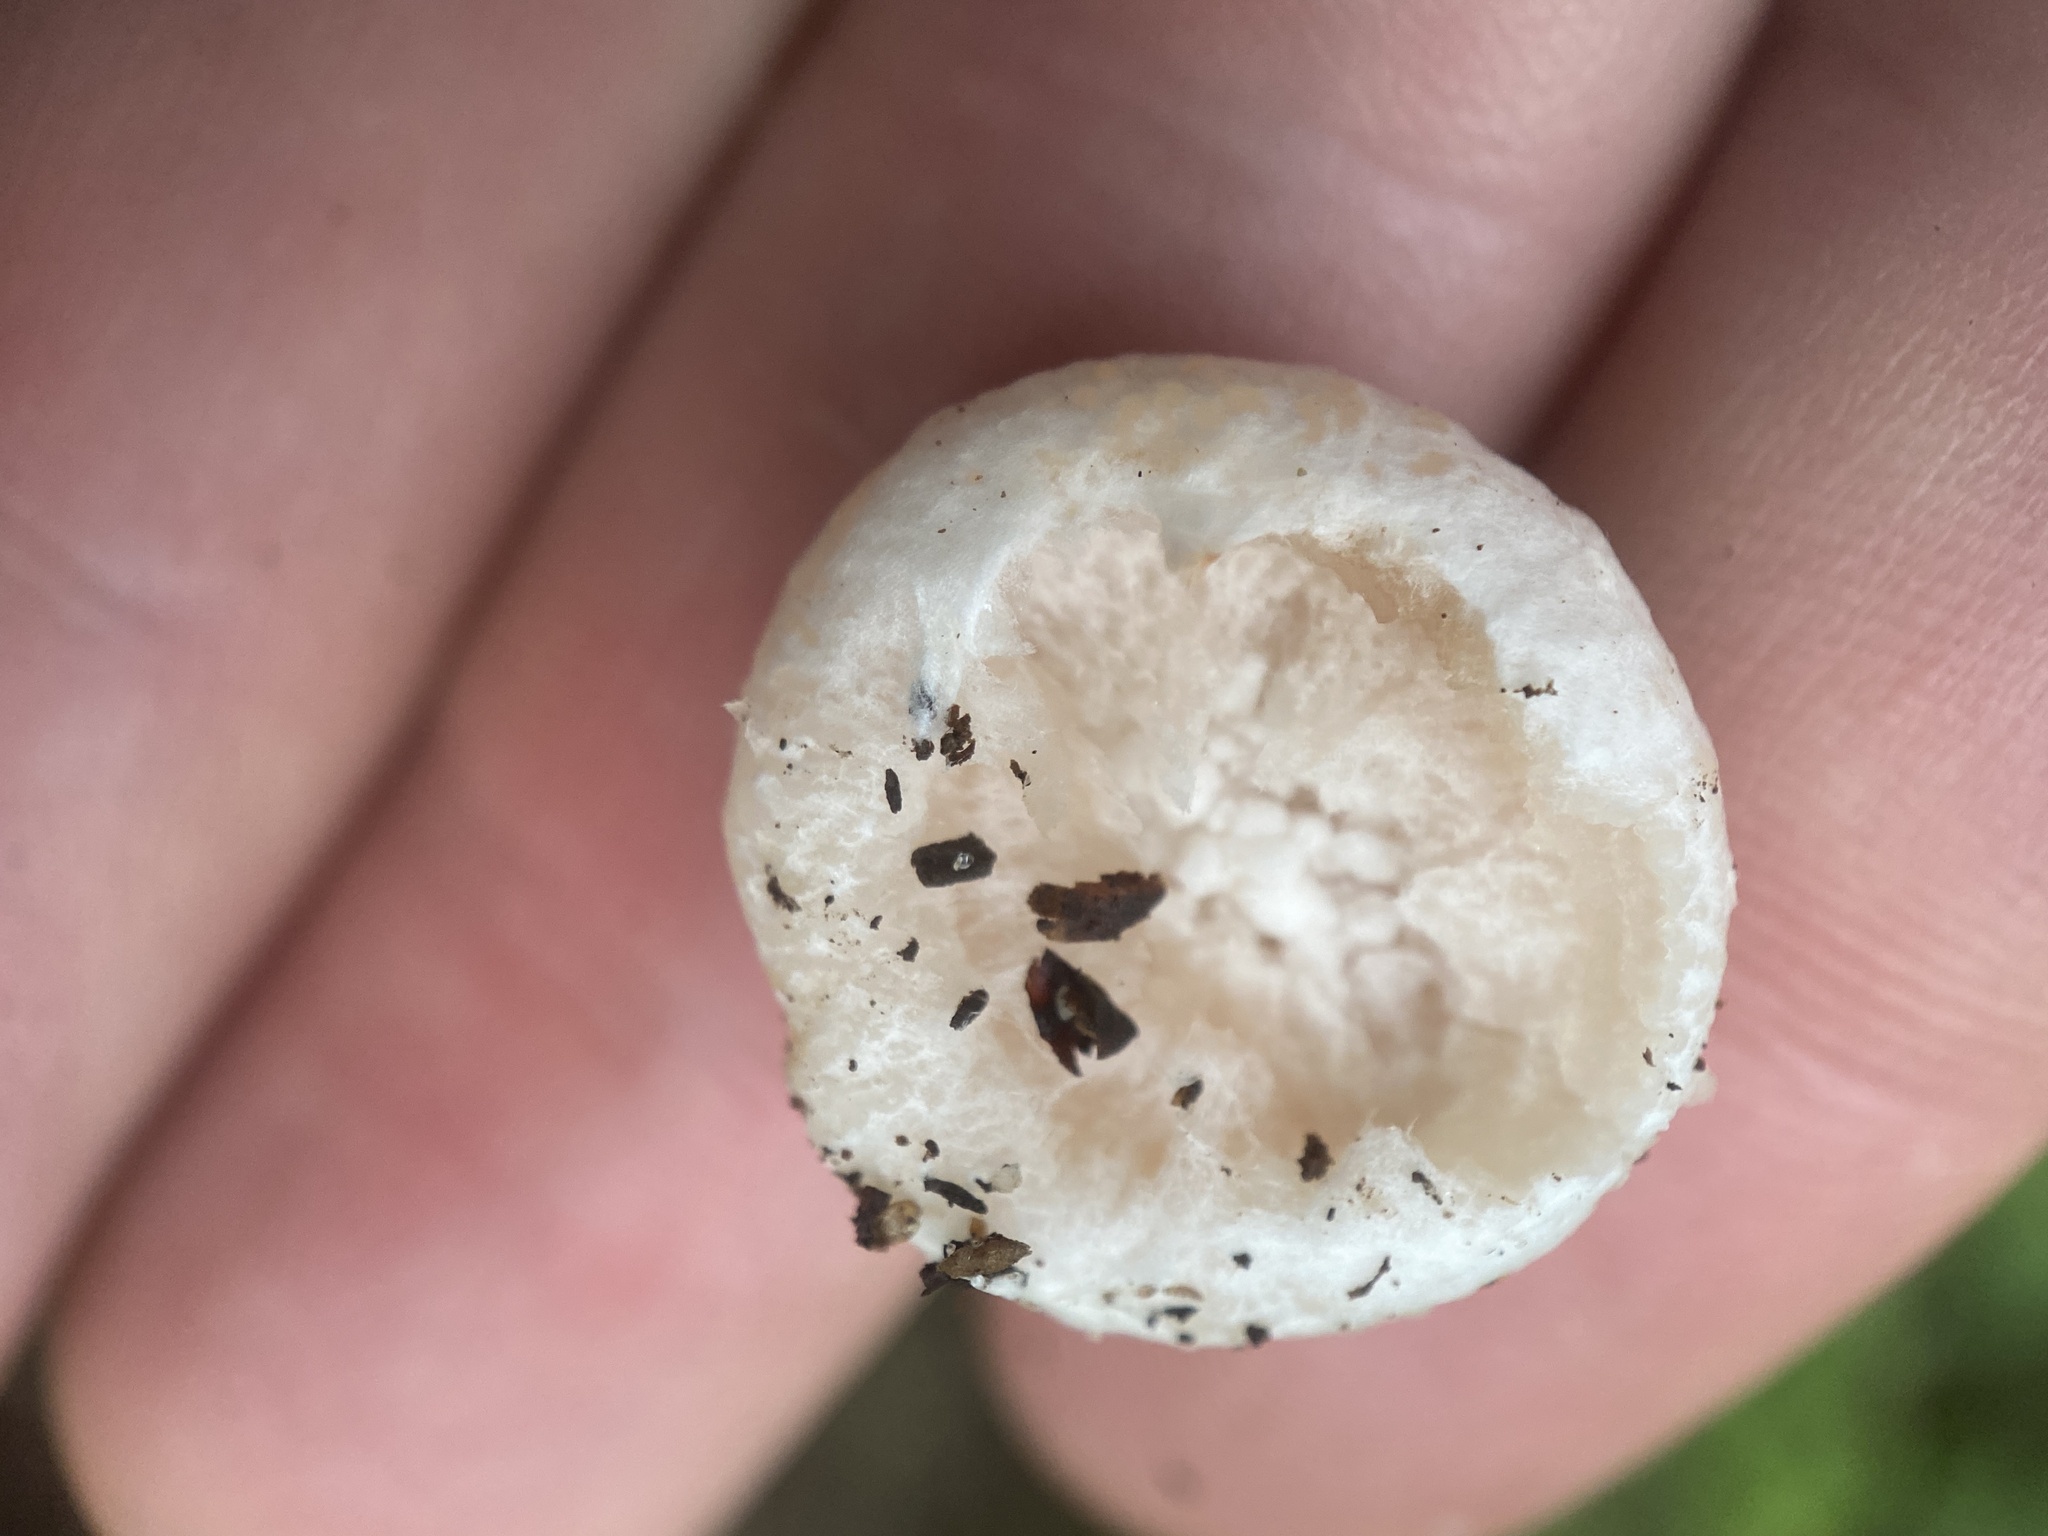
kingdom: Fungi
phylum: Basidiomycota
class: Agaricomycetes
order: Agaricales
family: Entolomataceae
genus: Entoloma
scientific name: Entoloma abortivum
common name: Aborted entoloma
